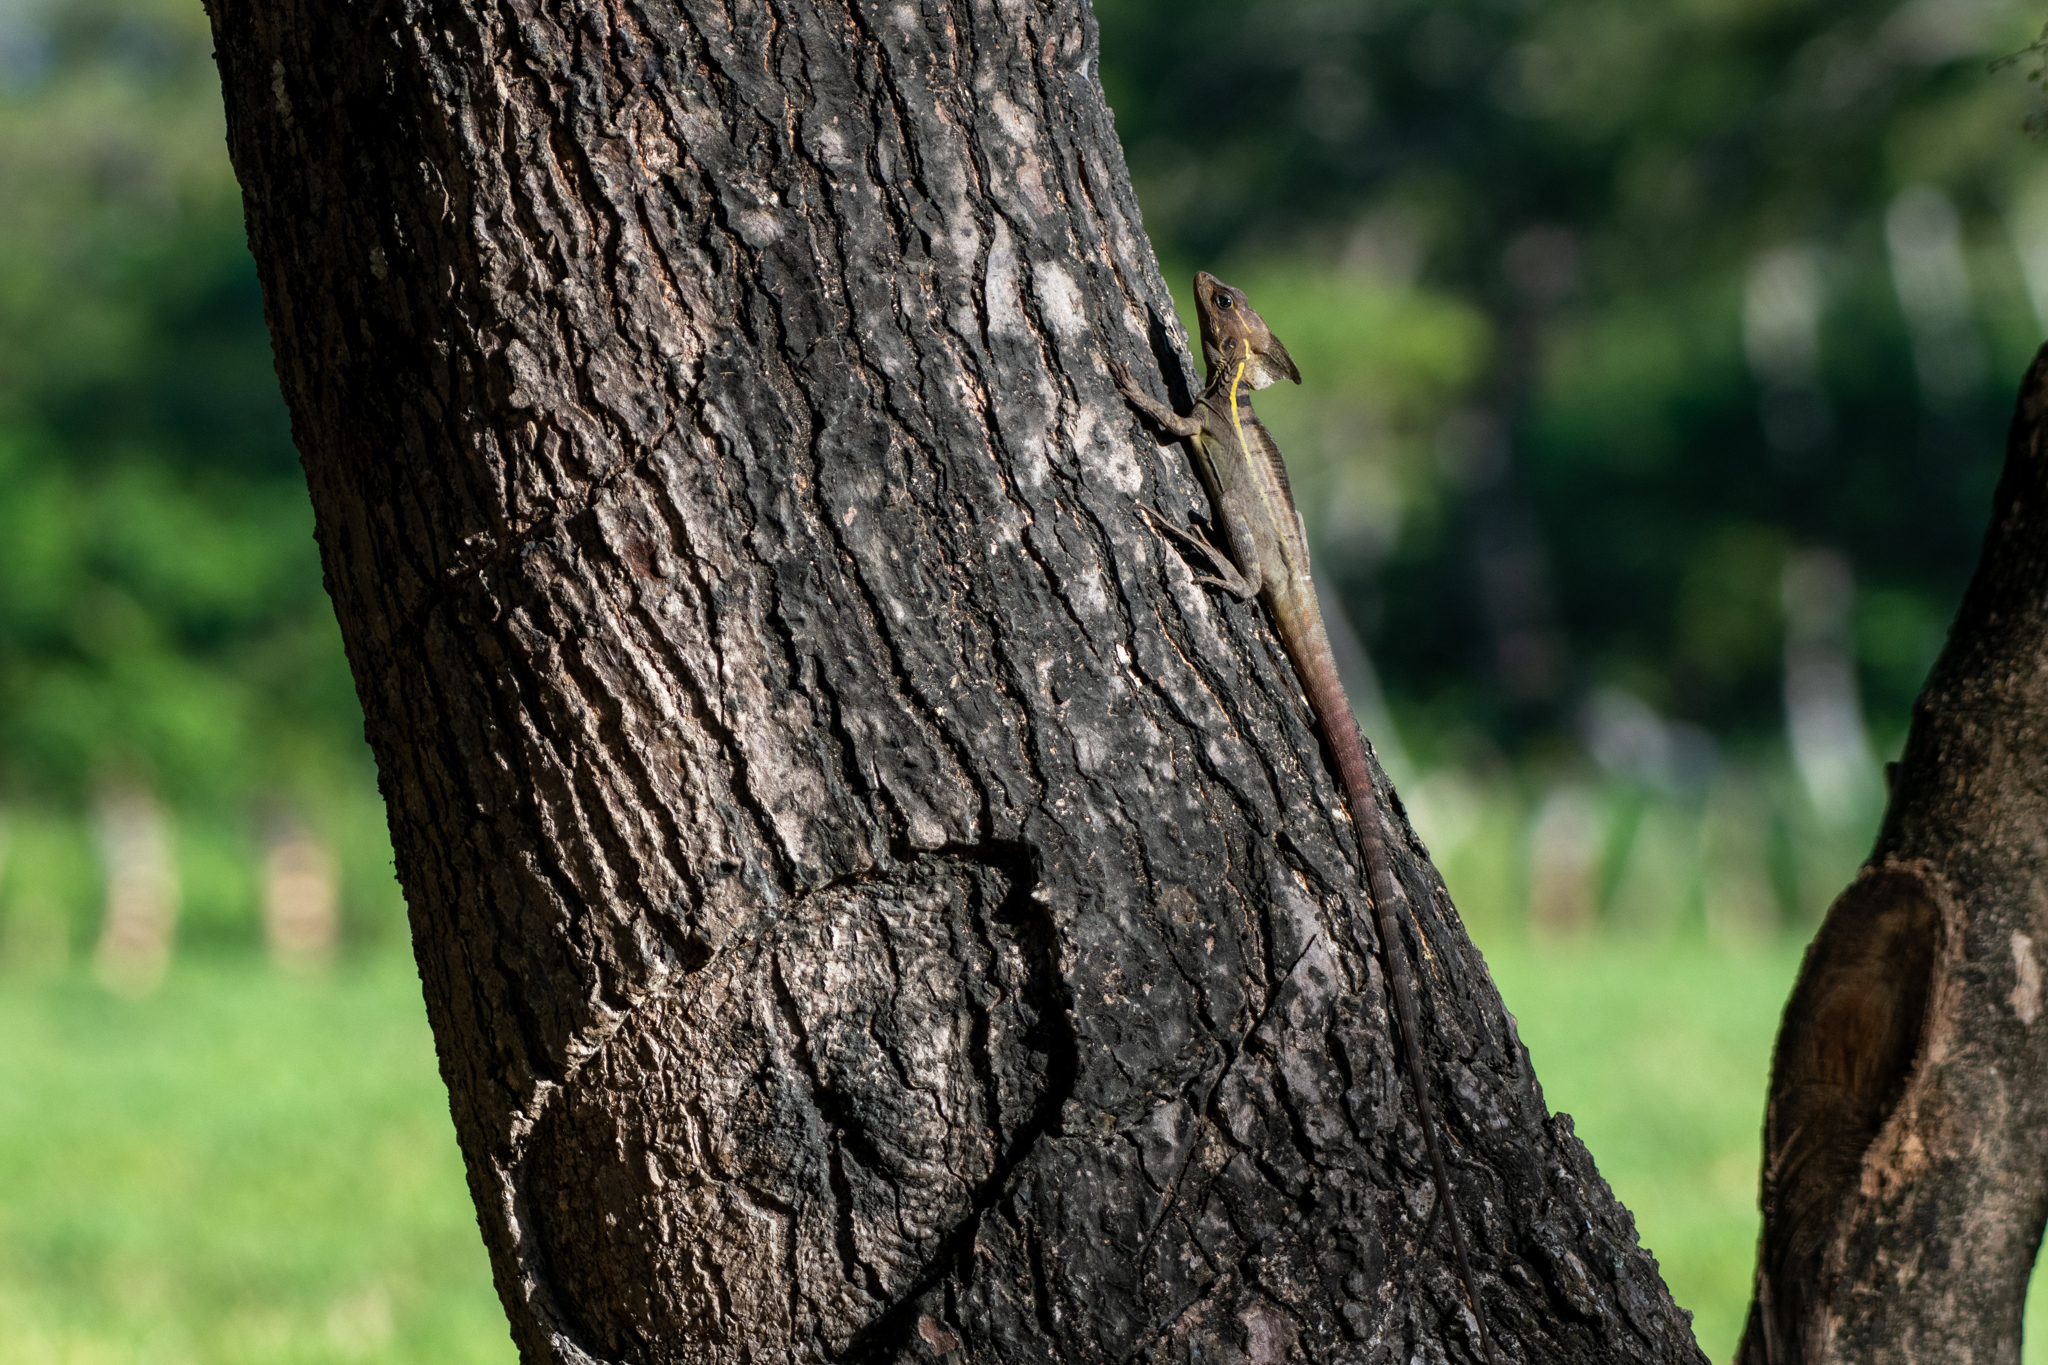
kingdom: Animalia
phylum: Chordata
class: Squamata
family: Corytophanidae
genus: Basiliscus
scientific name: Basiliscus vittatus
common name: Brown basilisk
